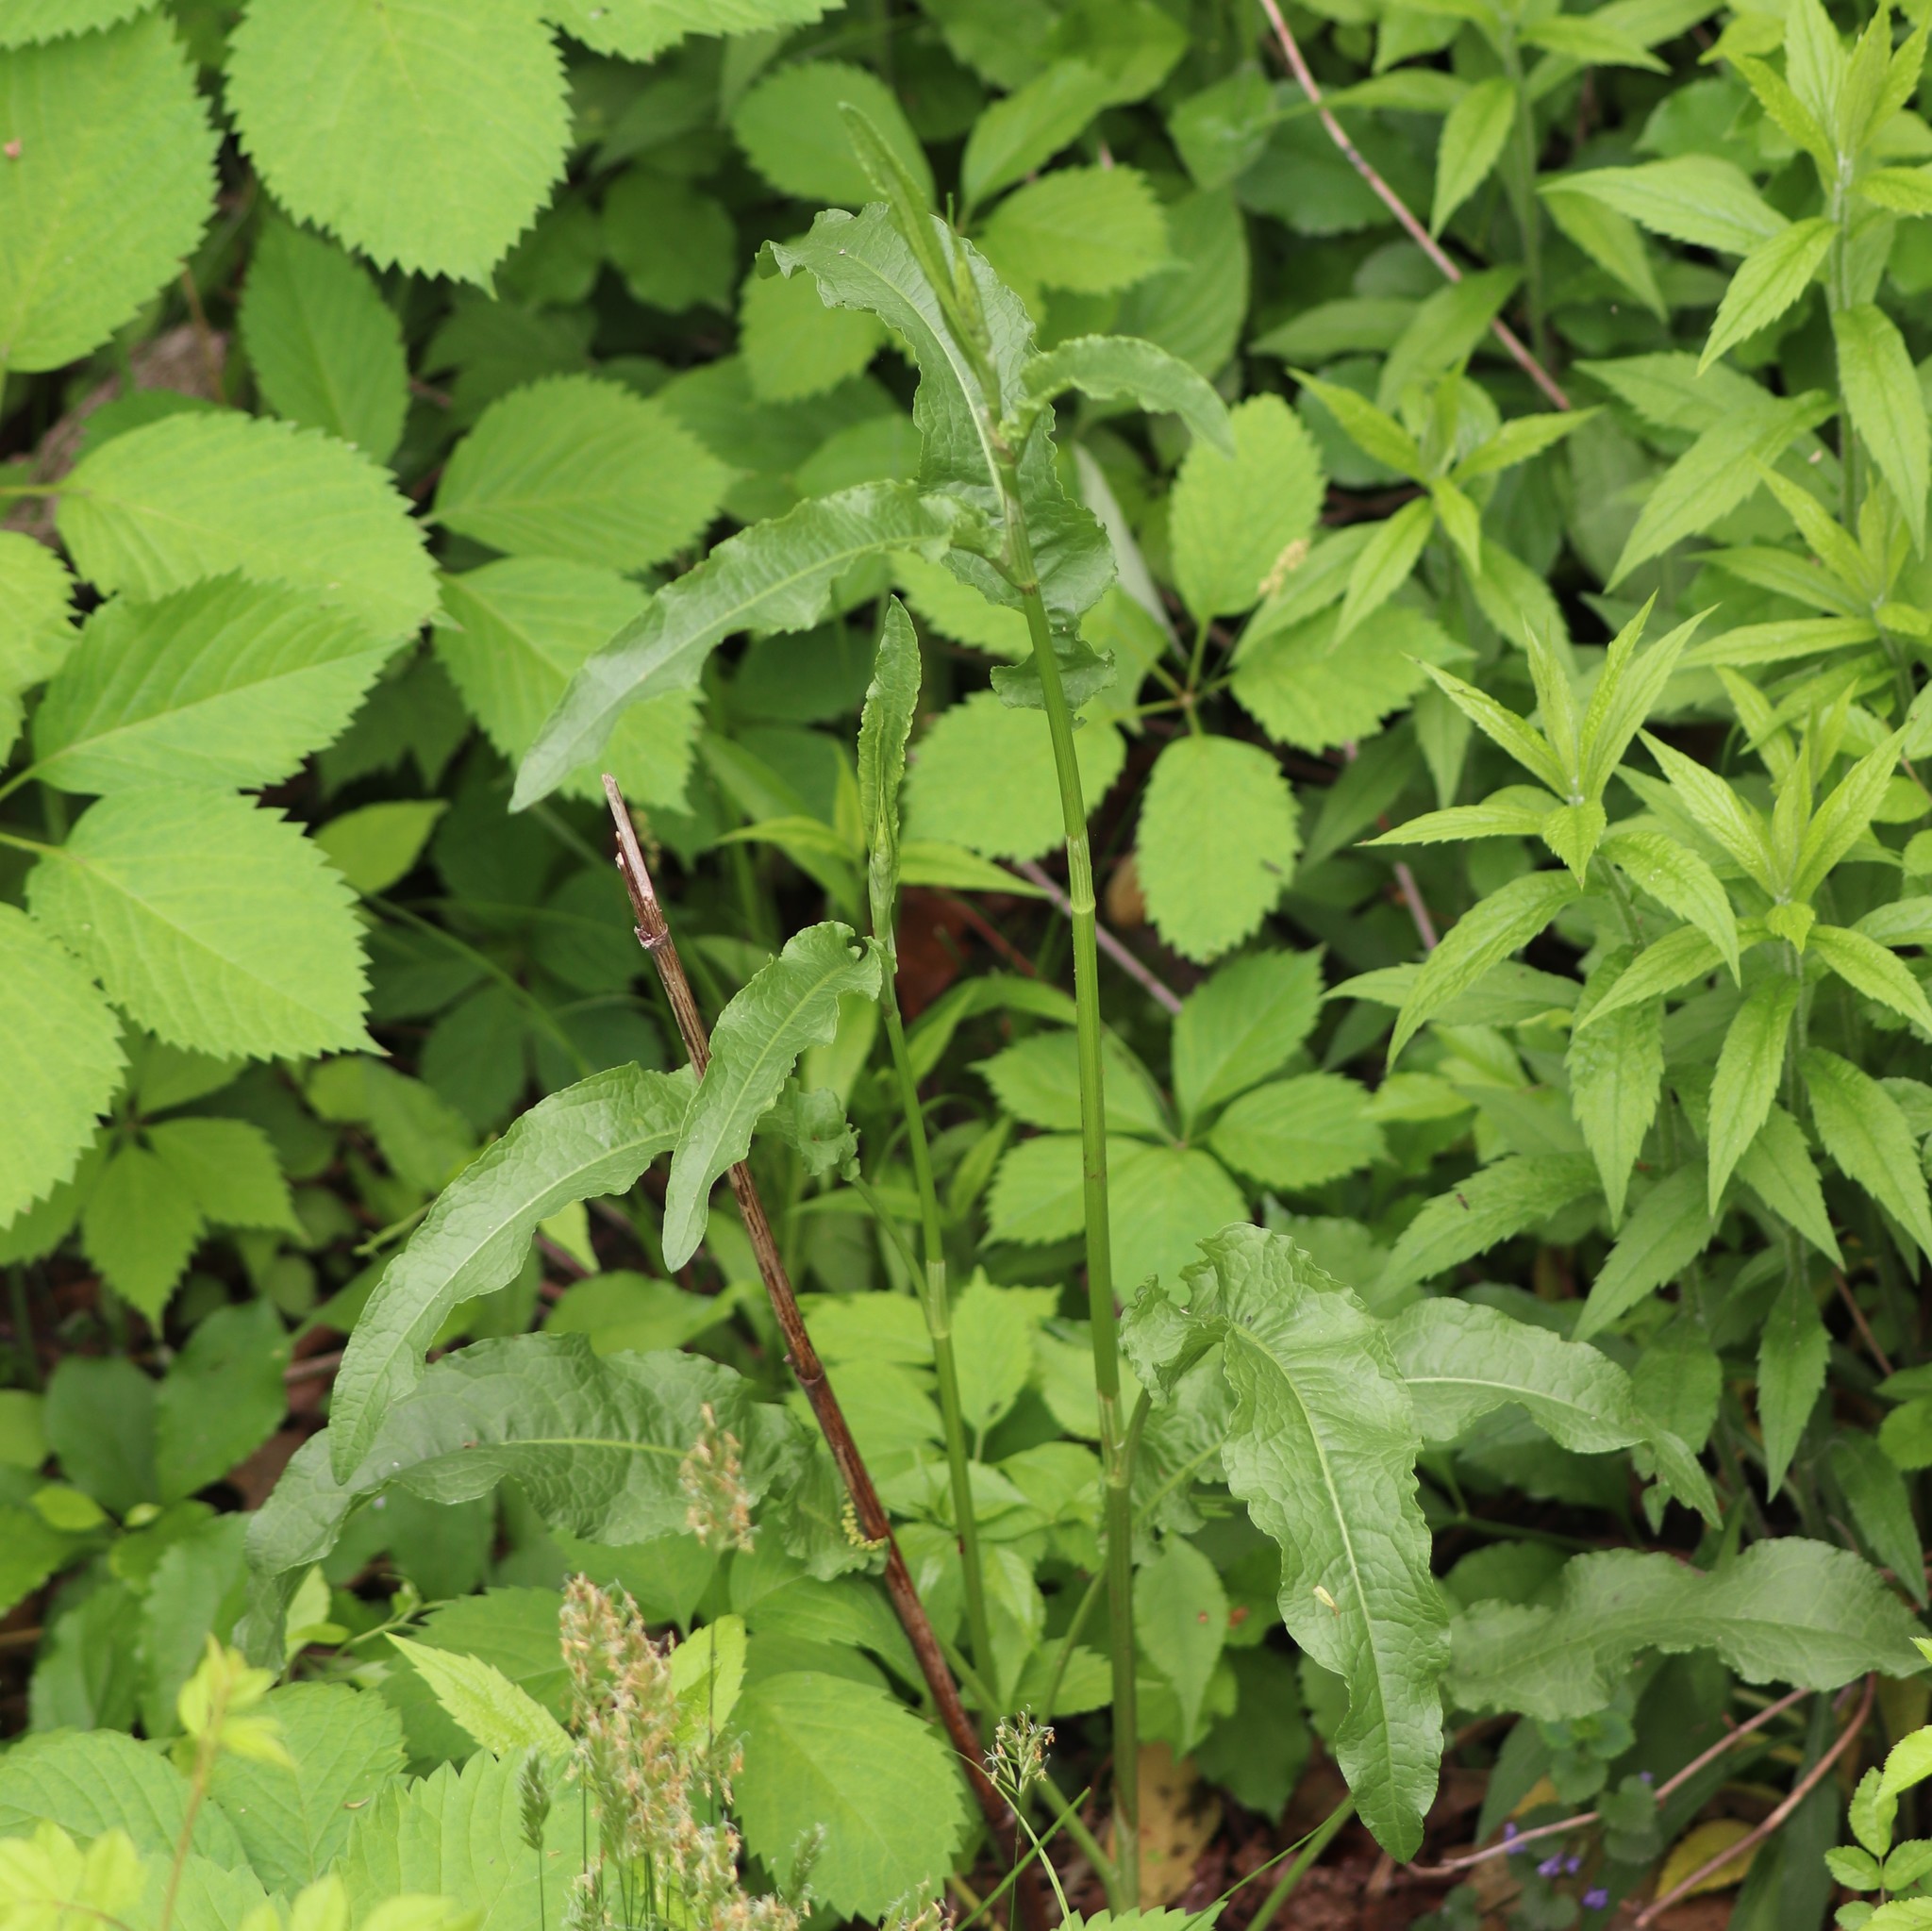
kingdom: Plantae
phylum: Tracheophyta
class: Magnoliopsida
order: Caryophyllales
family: Polygonaceae
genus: Rumex
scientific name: Rumex crispus
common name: Curled dock
